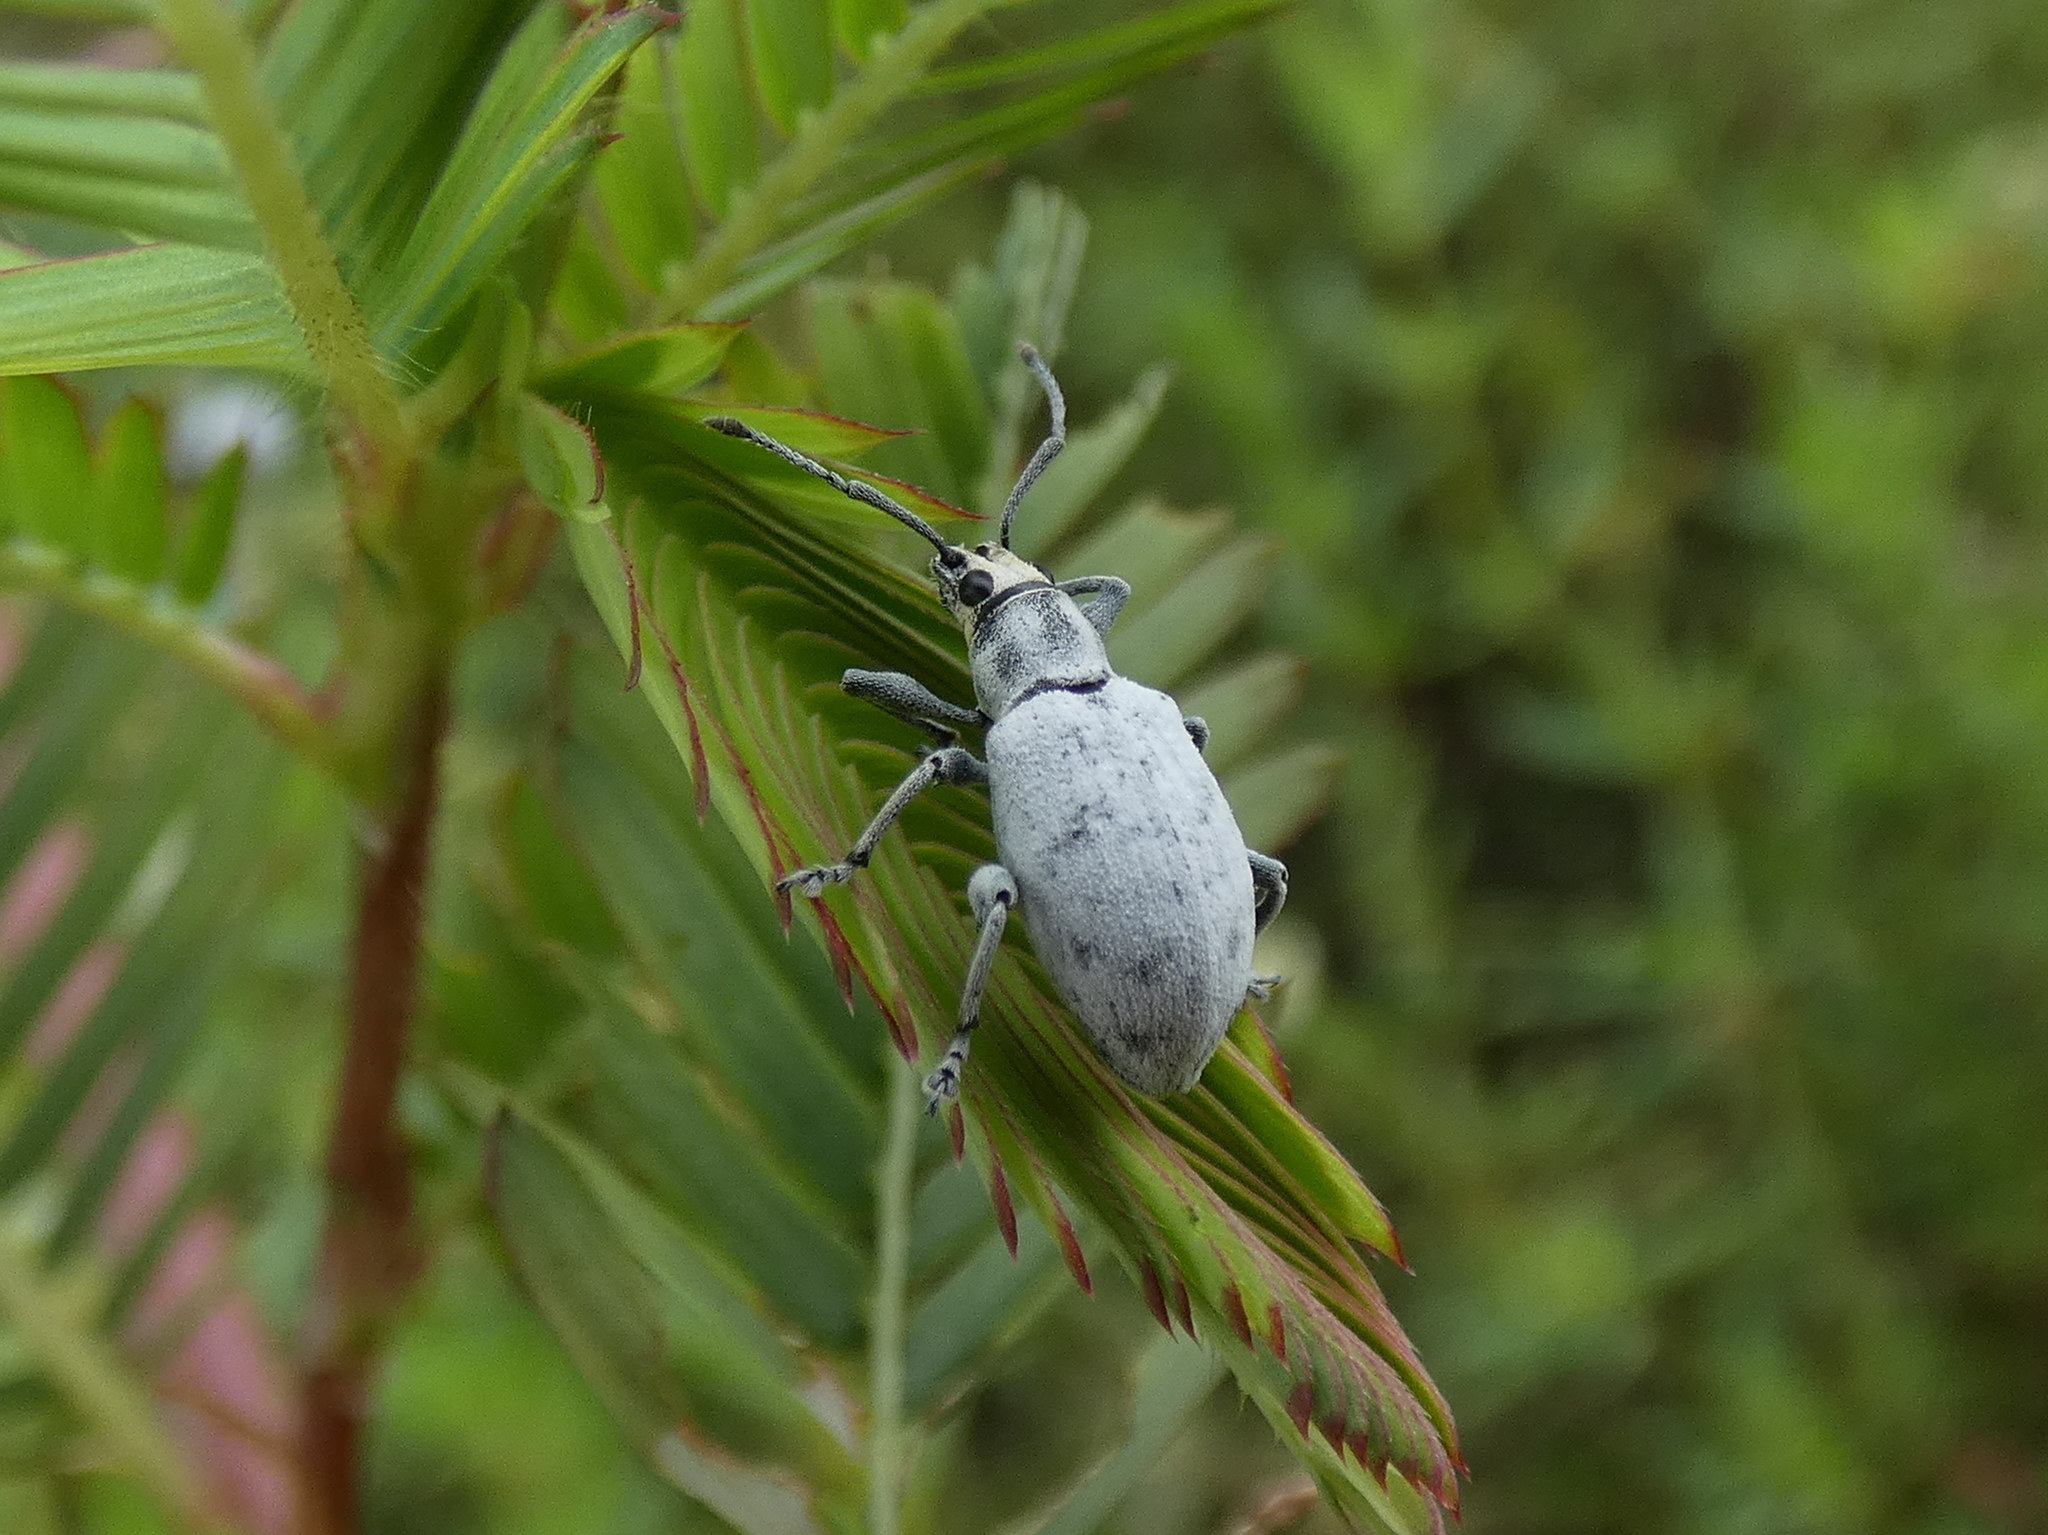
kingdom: Animalia
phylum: Arthropoda
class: Insecta
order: Coleoptera
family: Curculionidae
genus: Myllocerus
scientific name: Myllocerus undecimpustulatus
